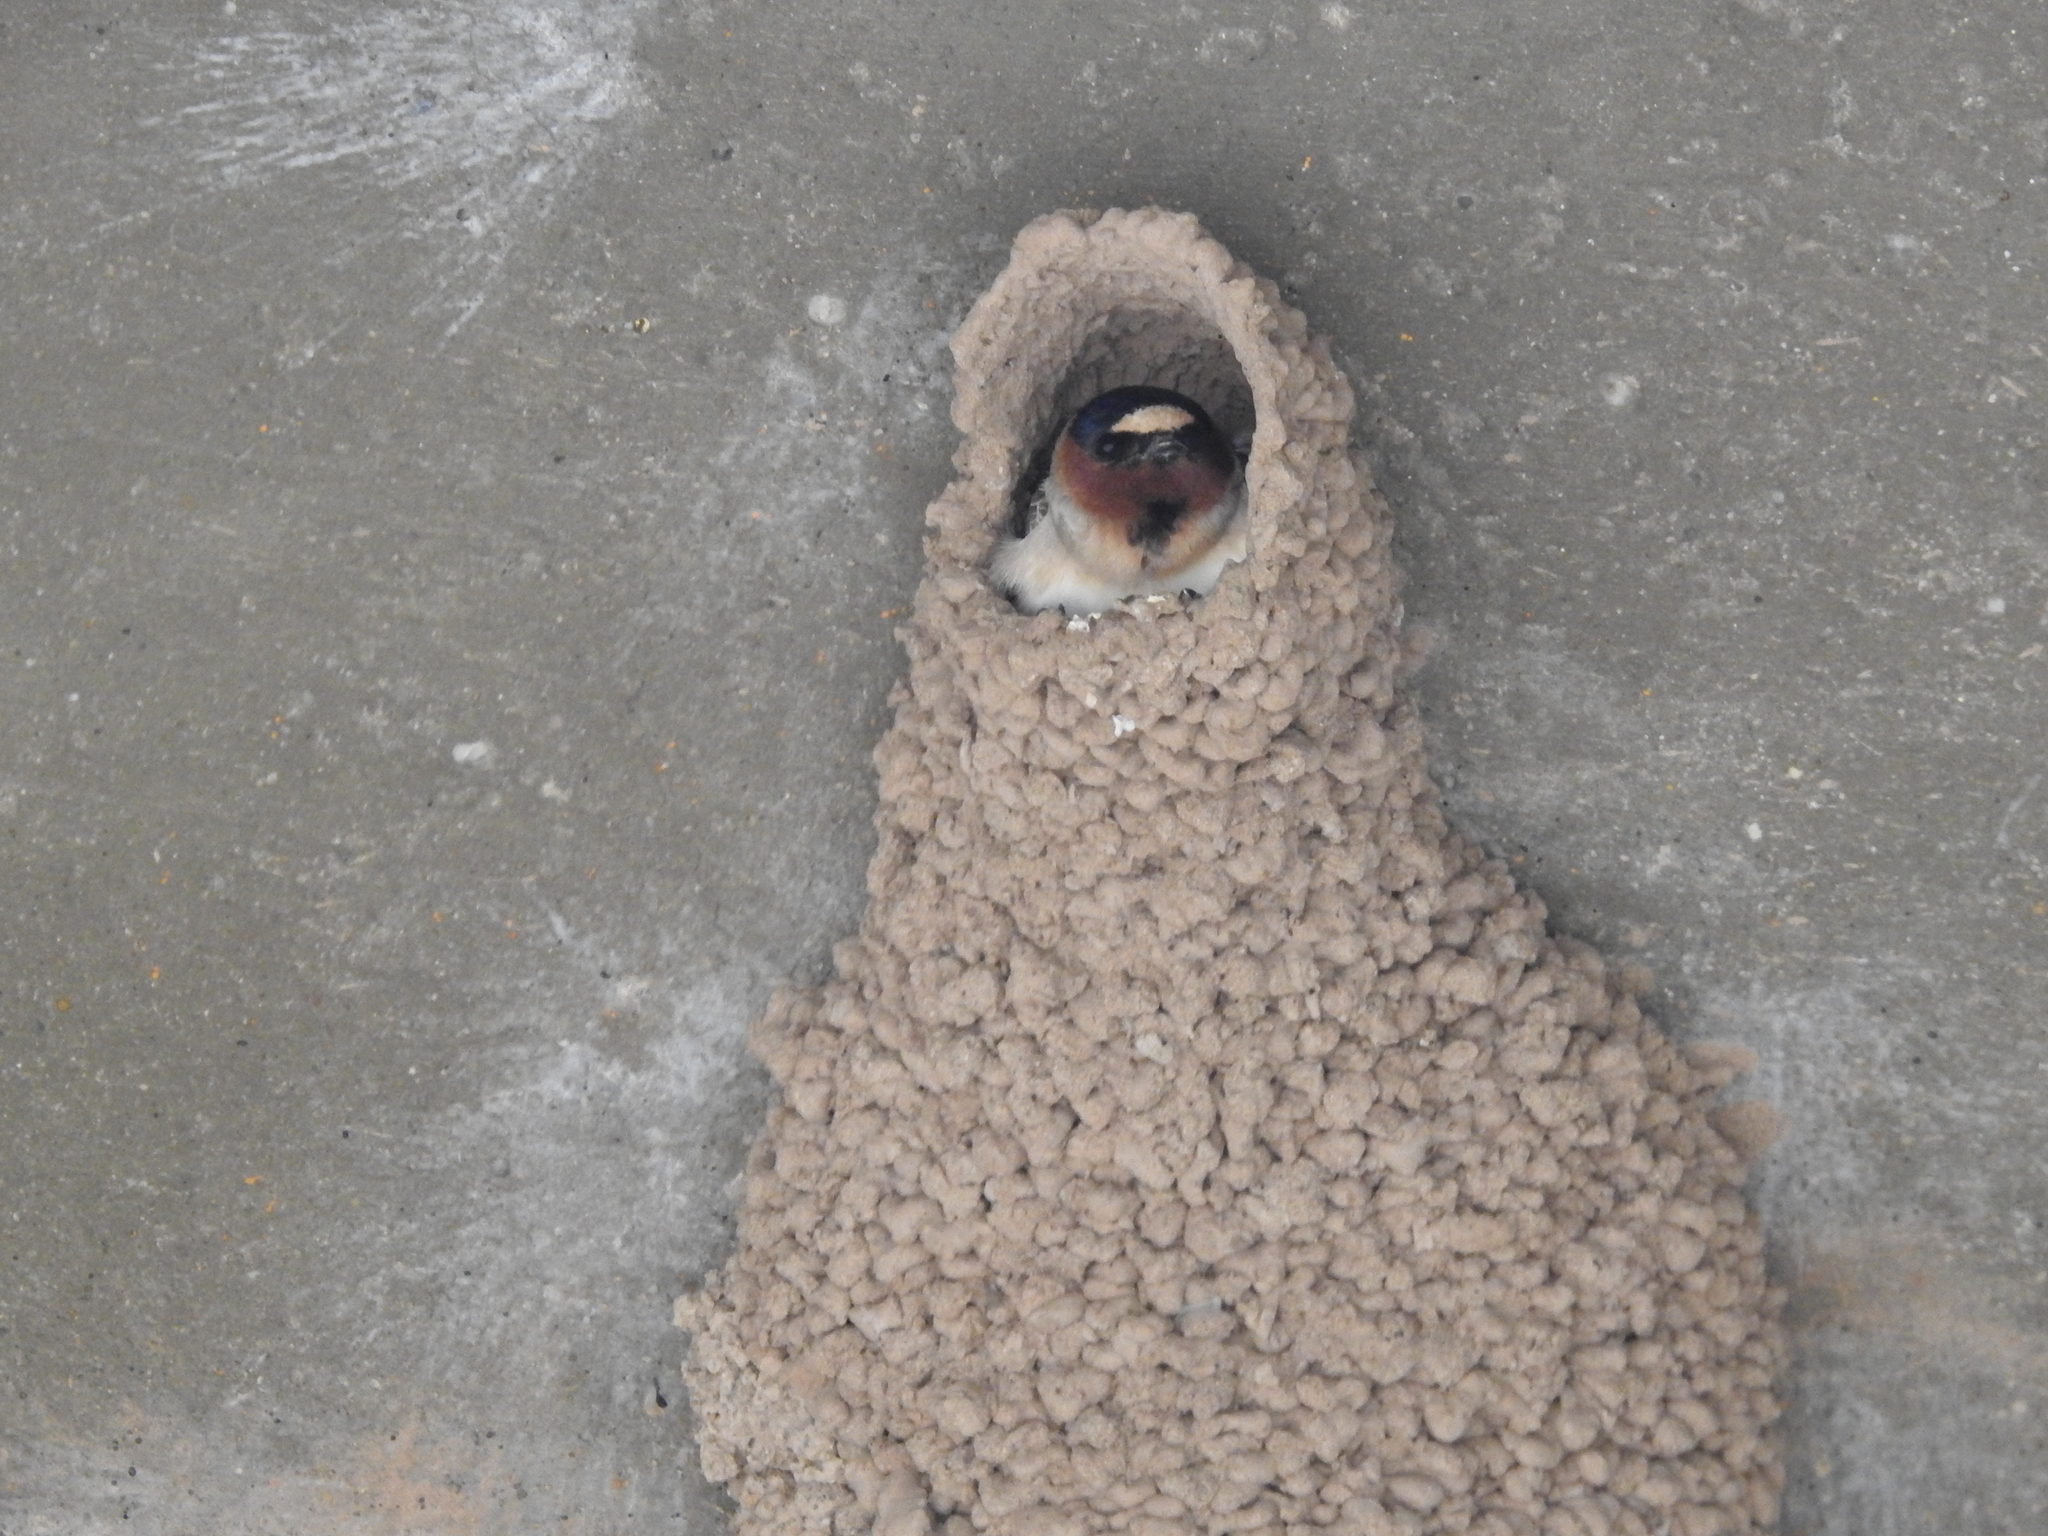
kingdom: Animalia
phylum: Chordata
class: Aves
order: Passeriformes
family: Hirundinidae
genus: Petrochelidon
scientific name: Petrochelidon pyrrhonota
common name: American cliff swallow
